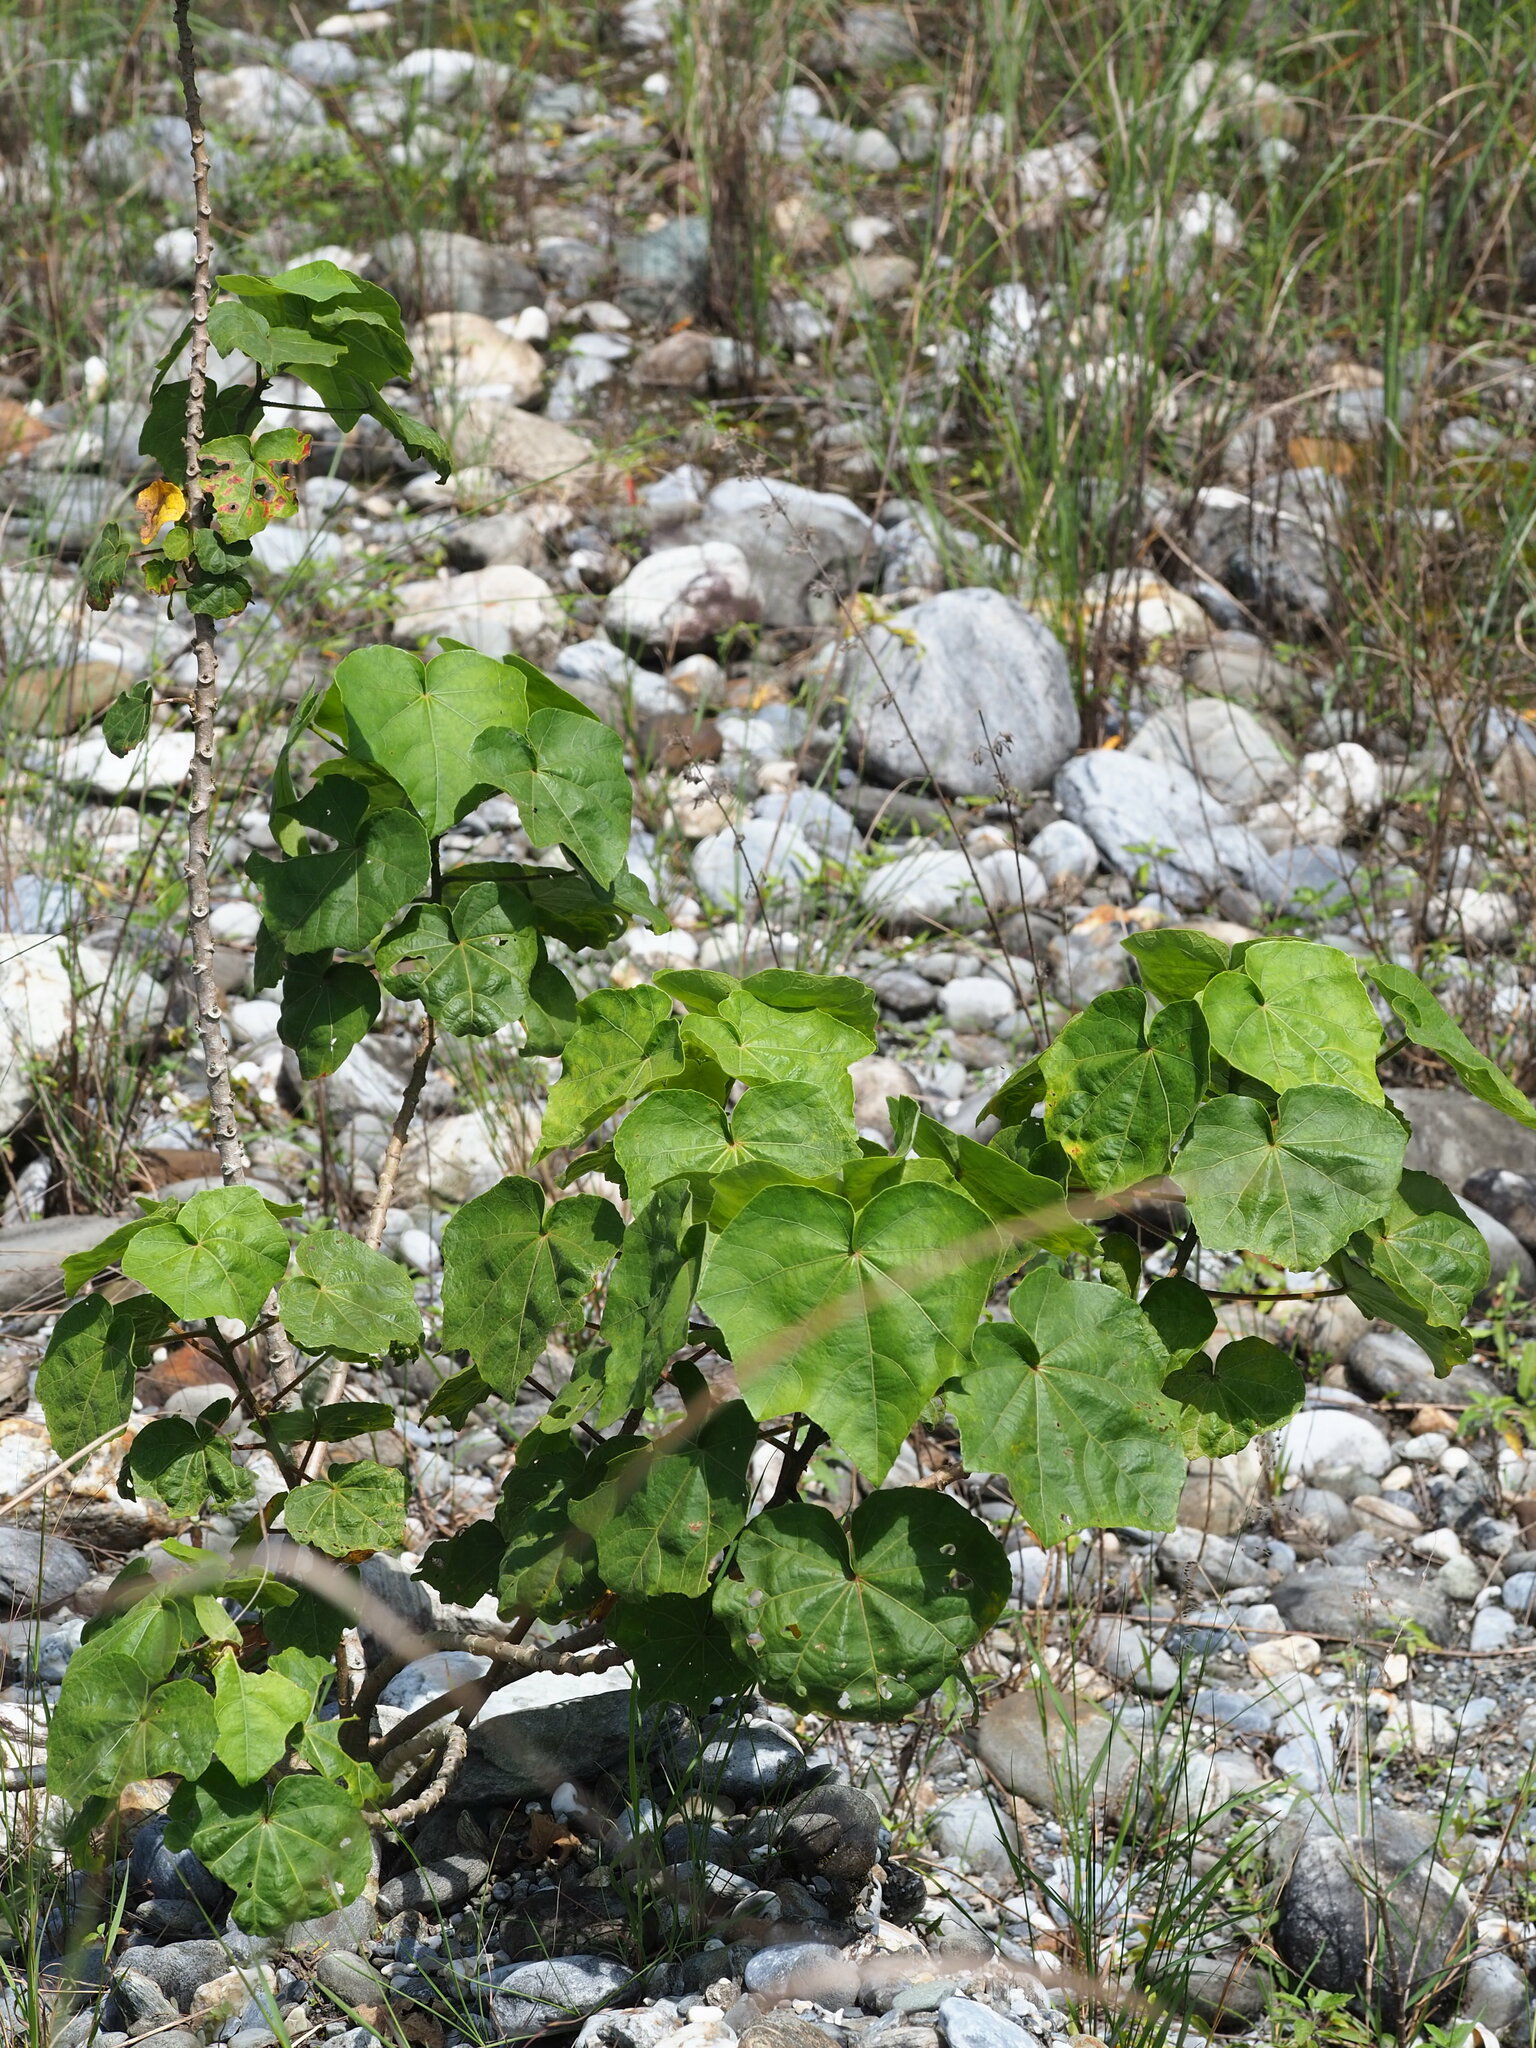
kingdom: Plantae
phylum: Tracheophyta
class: Magnoliopsida
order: Malvales
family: Malvaceae
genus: Hibiscus
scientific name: Hibiscus makinoi
